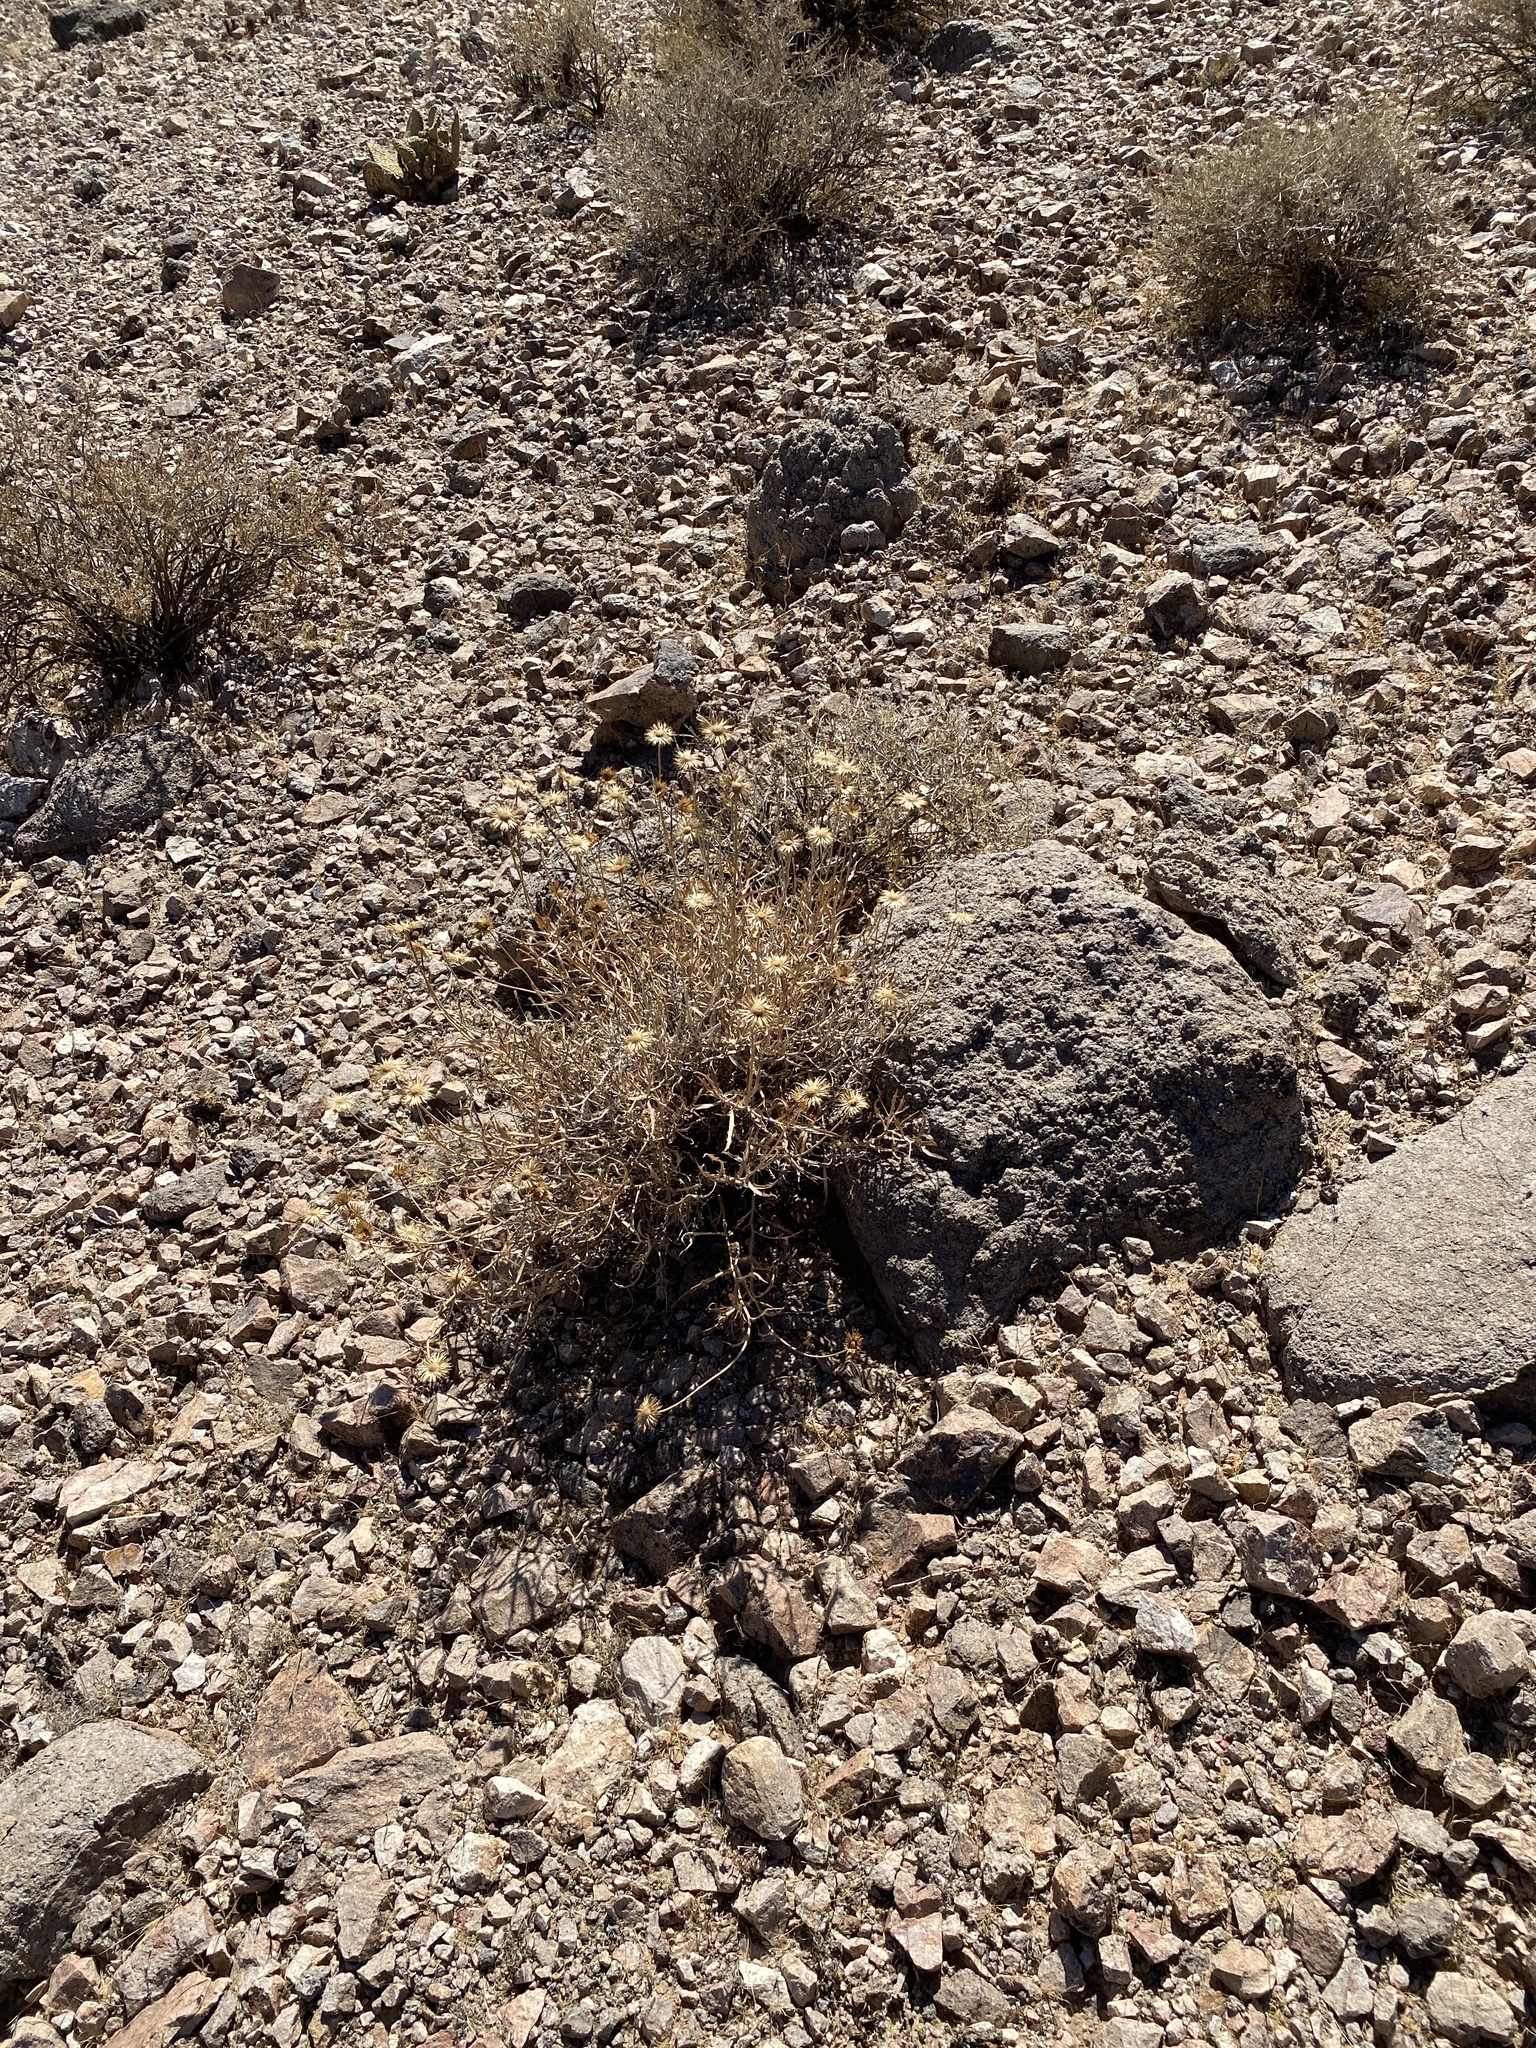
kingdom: Plantae
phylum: Tracheophyta
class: Magnoliopsida
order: Asterales
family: Asteraceae
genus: Xylorhiza
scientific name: Xylorhiza tortifolia
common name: Hurt-leaf woody-aster
